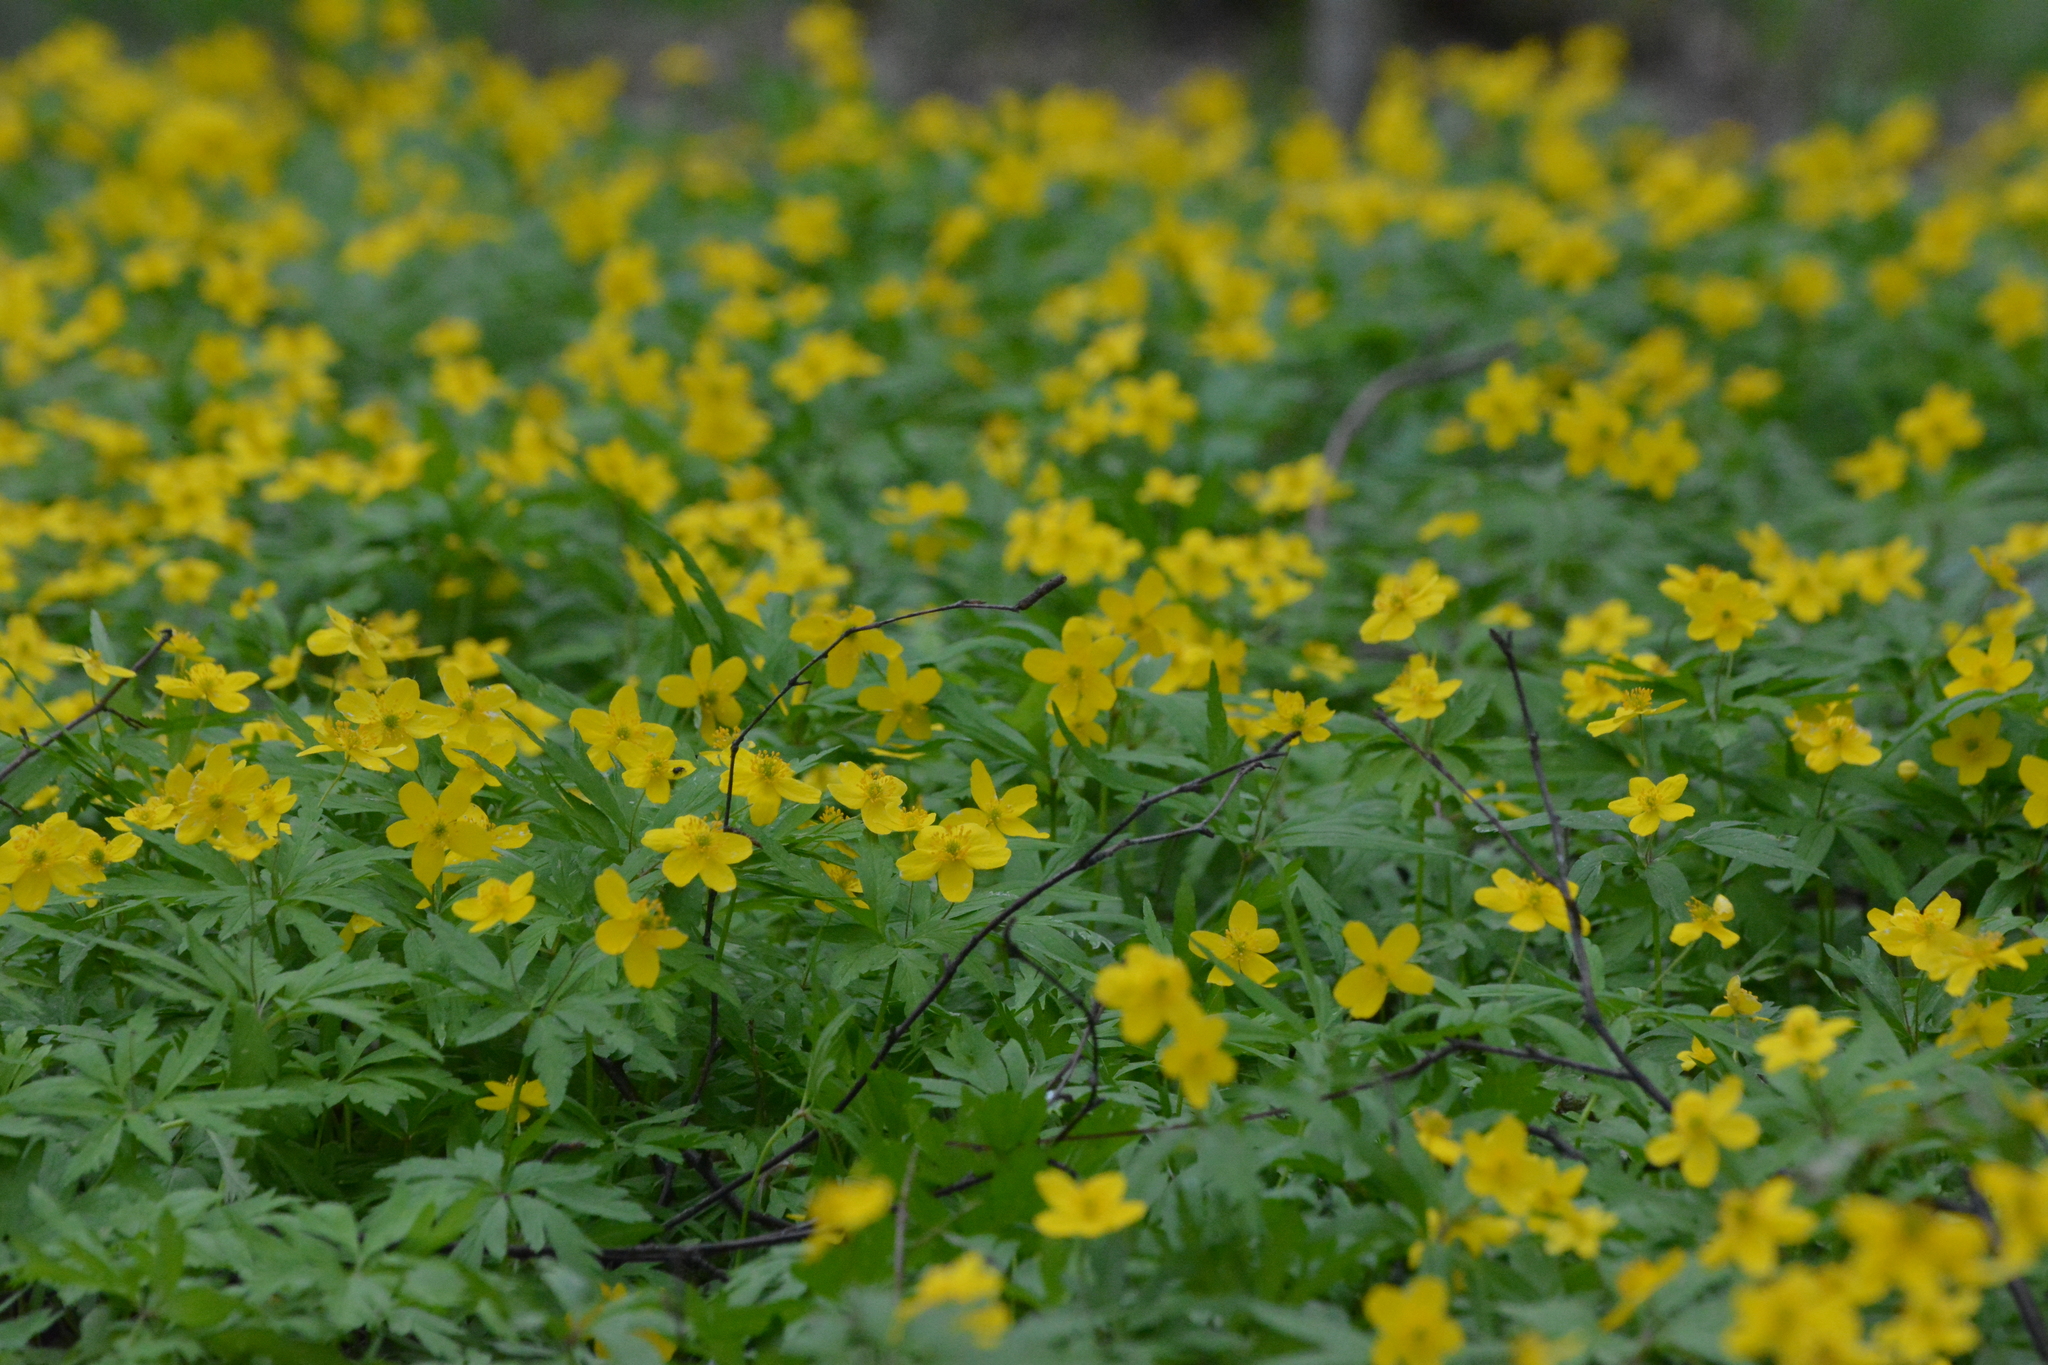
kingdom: Plantae
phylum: Tracheophyta
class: Magnoliopsida
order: Ranunculales
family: Ranunculaceae
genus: Anemone
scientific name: Anemone ranunculoides
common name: Yellow anemone
